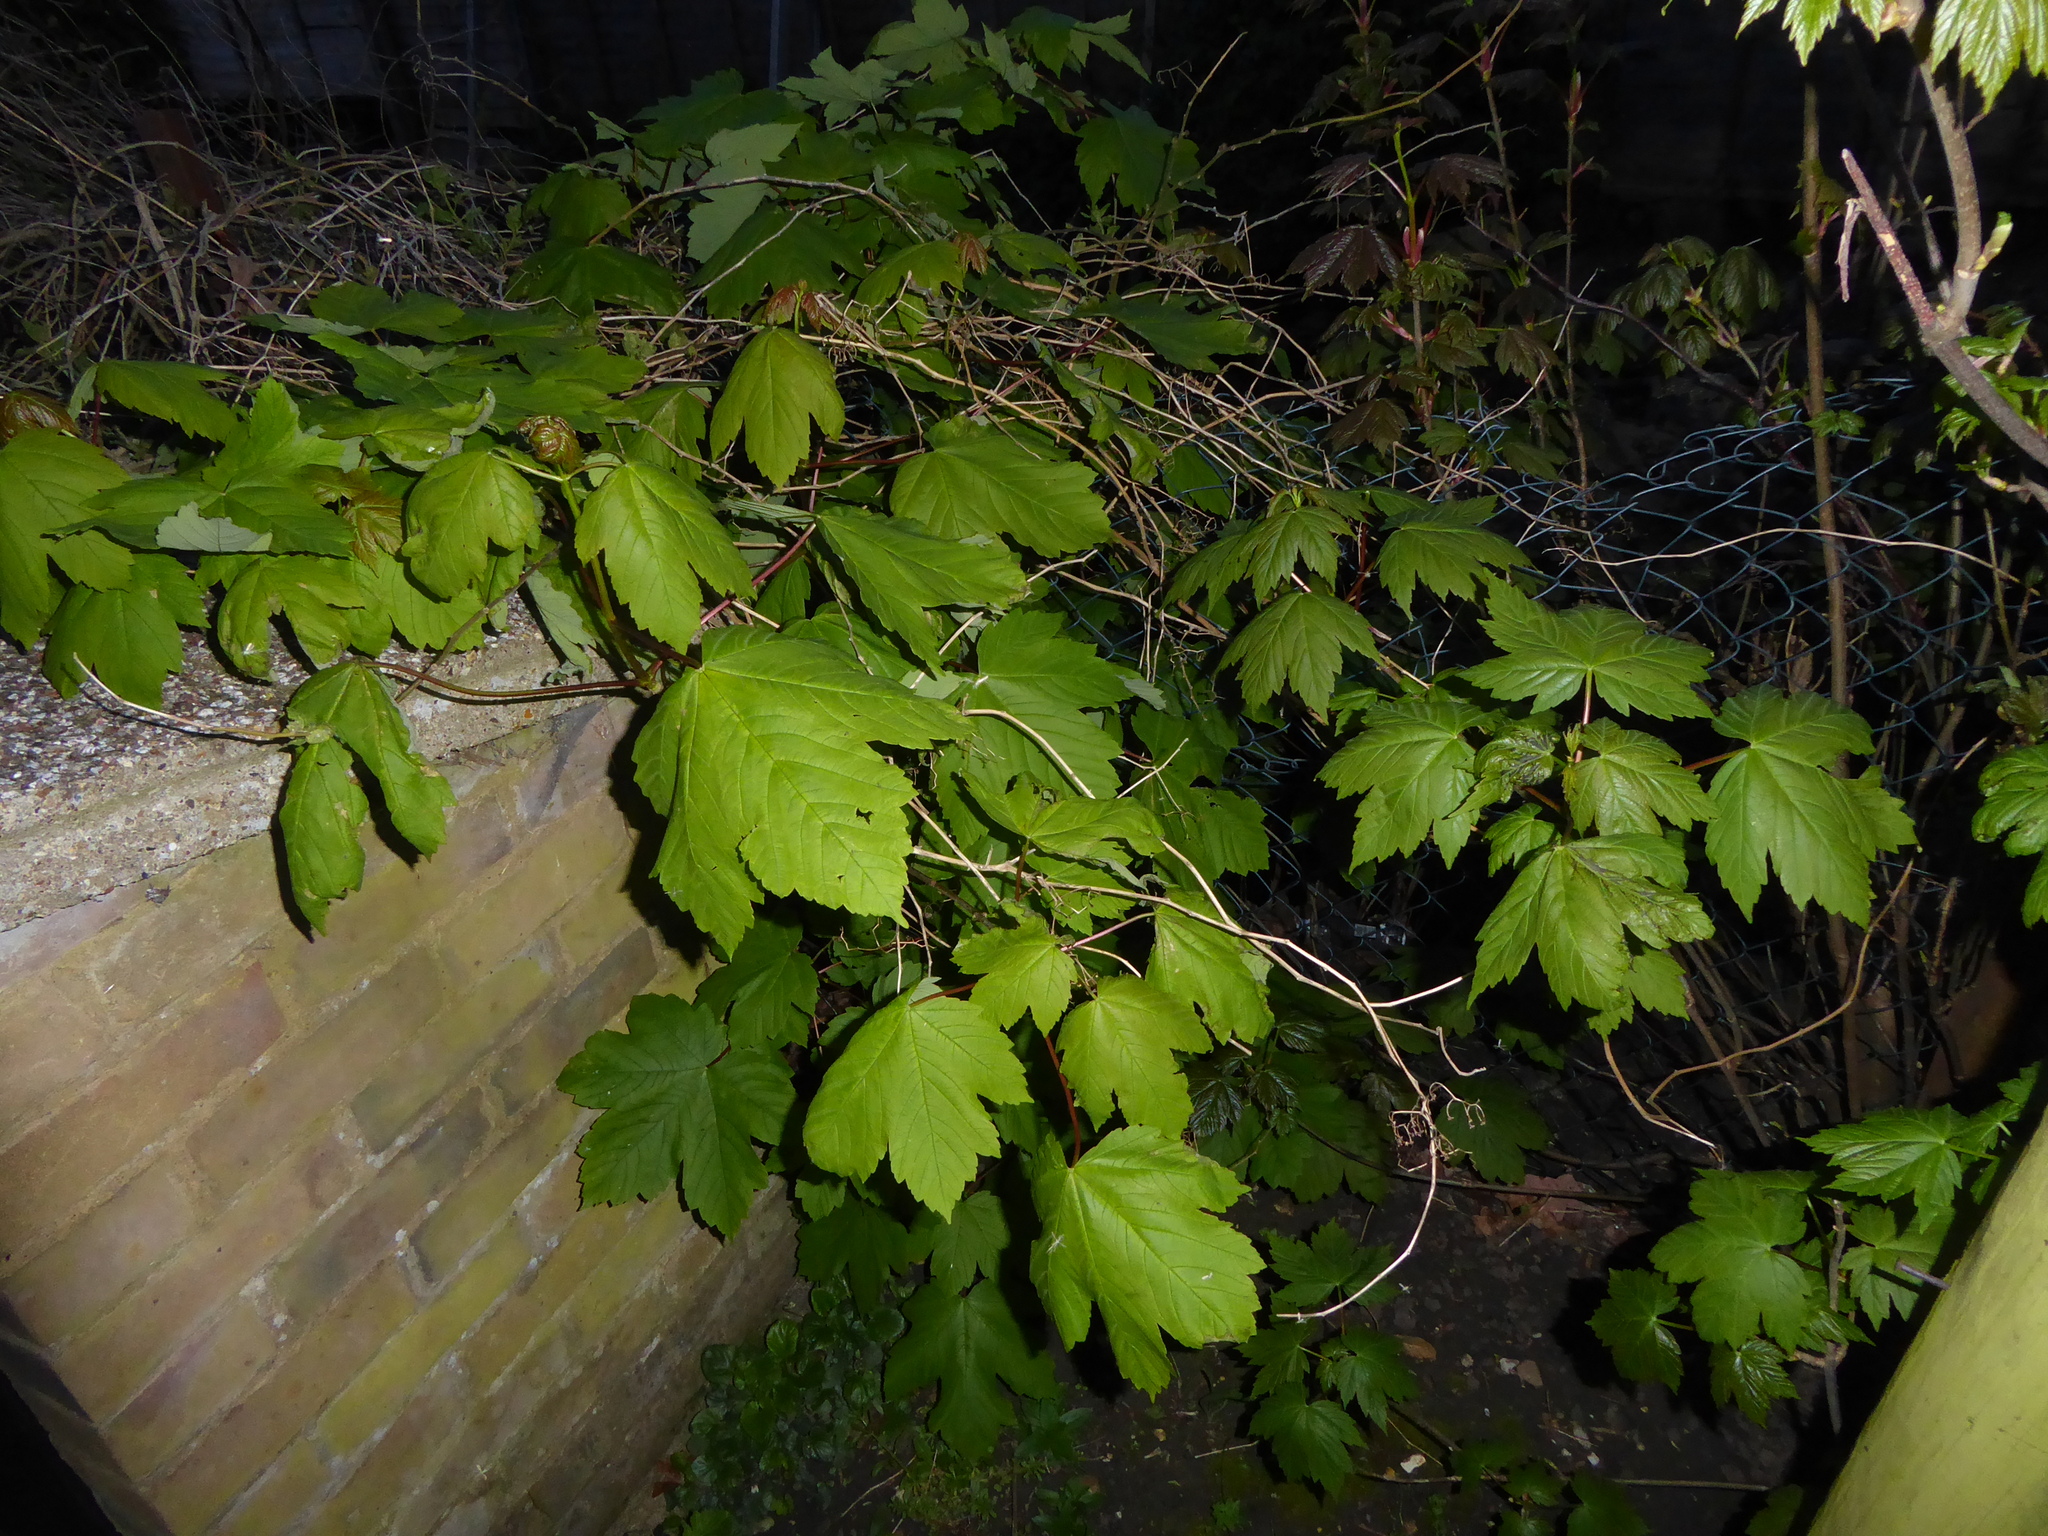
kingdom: Plantae
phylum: Tracheophyta
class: Magnoliopsida
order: Sapindales
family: Sapindaceae
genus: Acer
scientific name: Acer pseudoplatanus
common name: Sycamore
